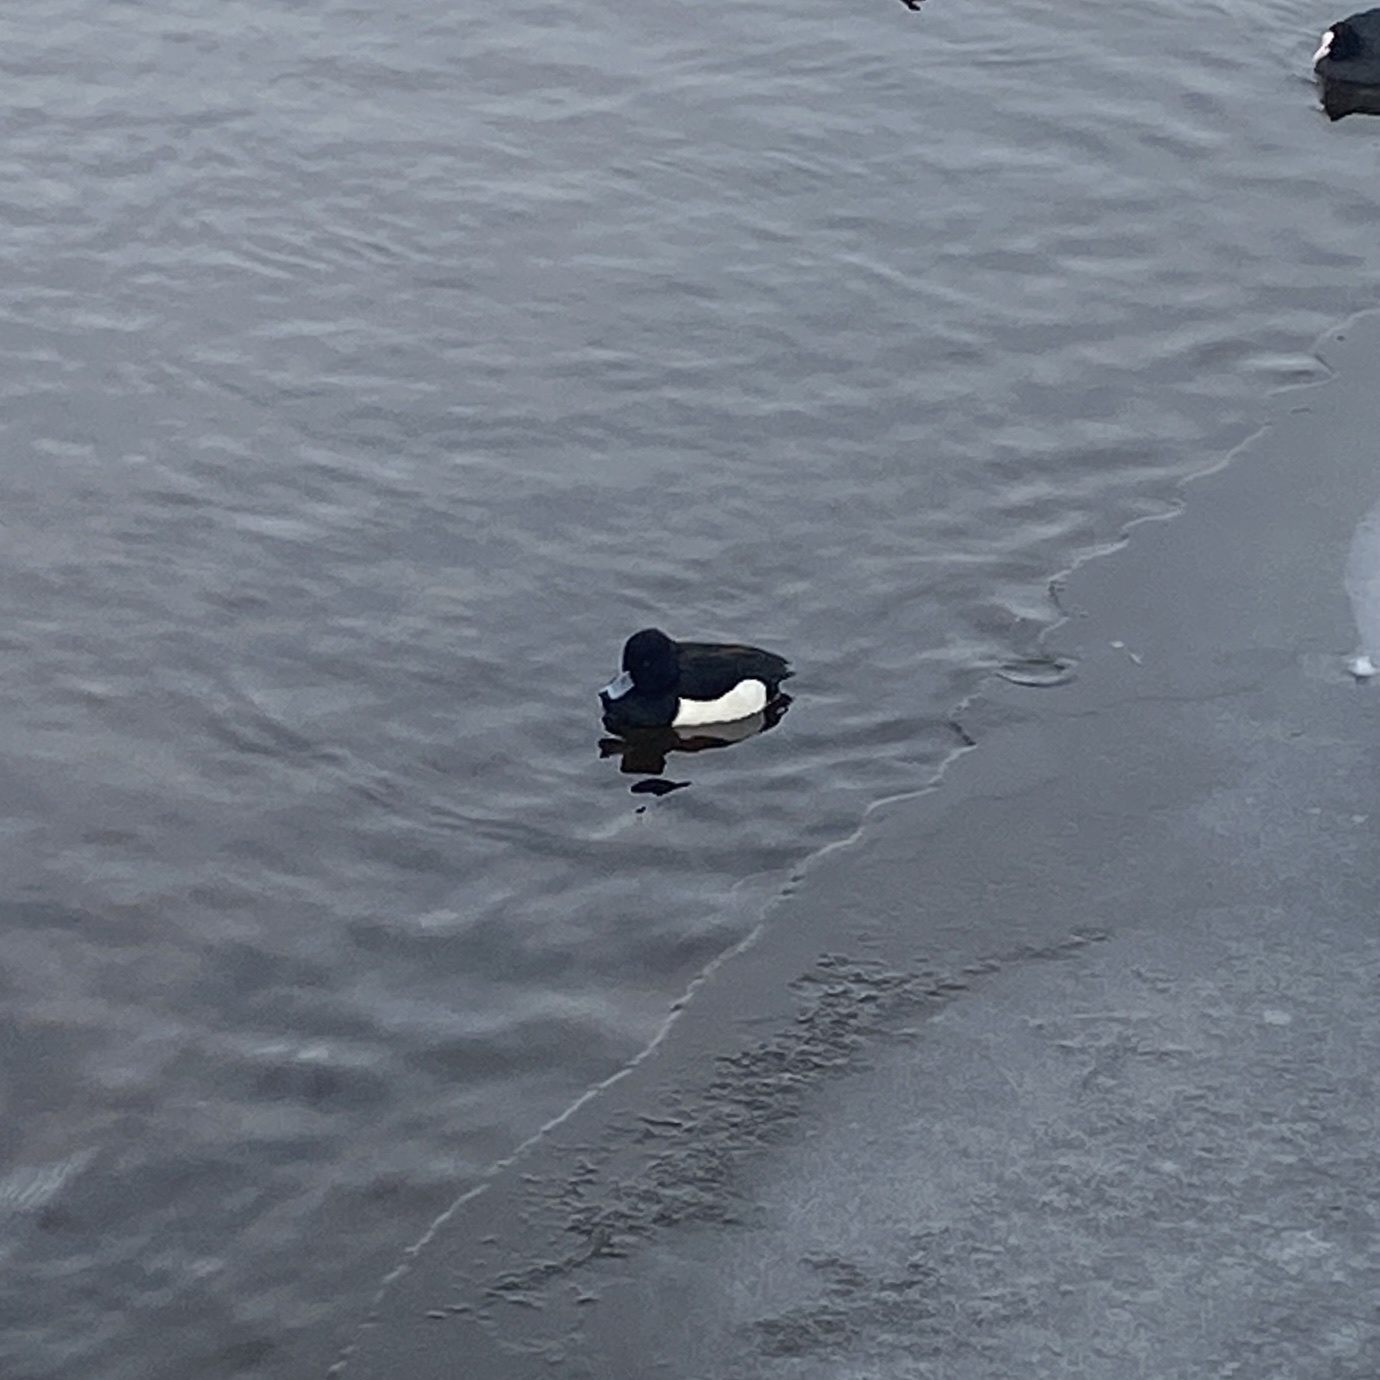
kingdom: Animalia
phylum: Chordata
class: Aves
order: Anseriformes
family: Anatidae
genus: Aythya
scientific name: Aythya fuligula
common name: Tufted duck
